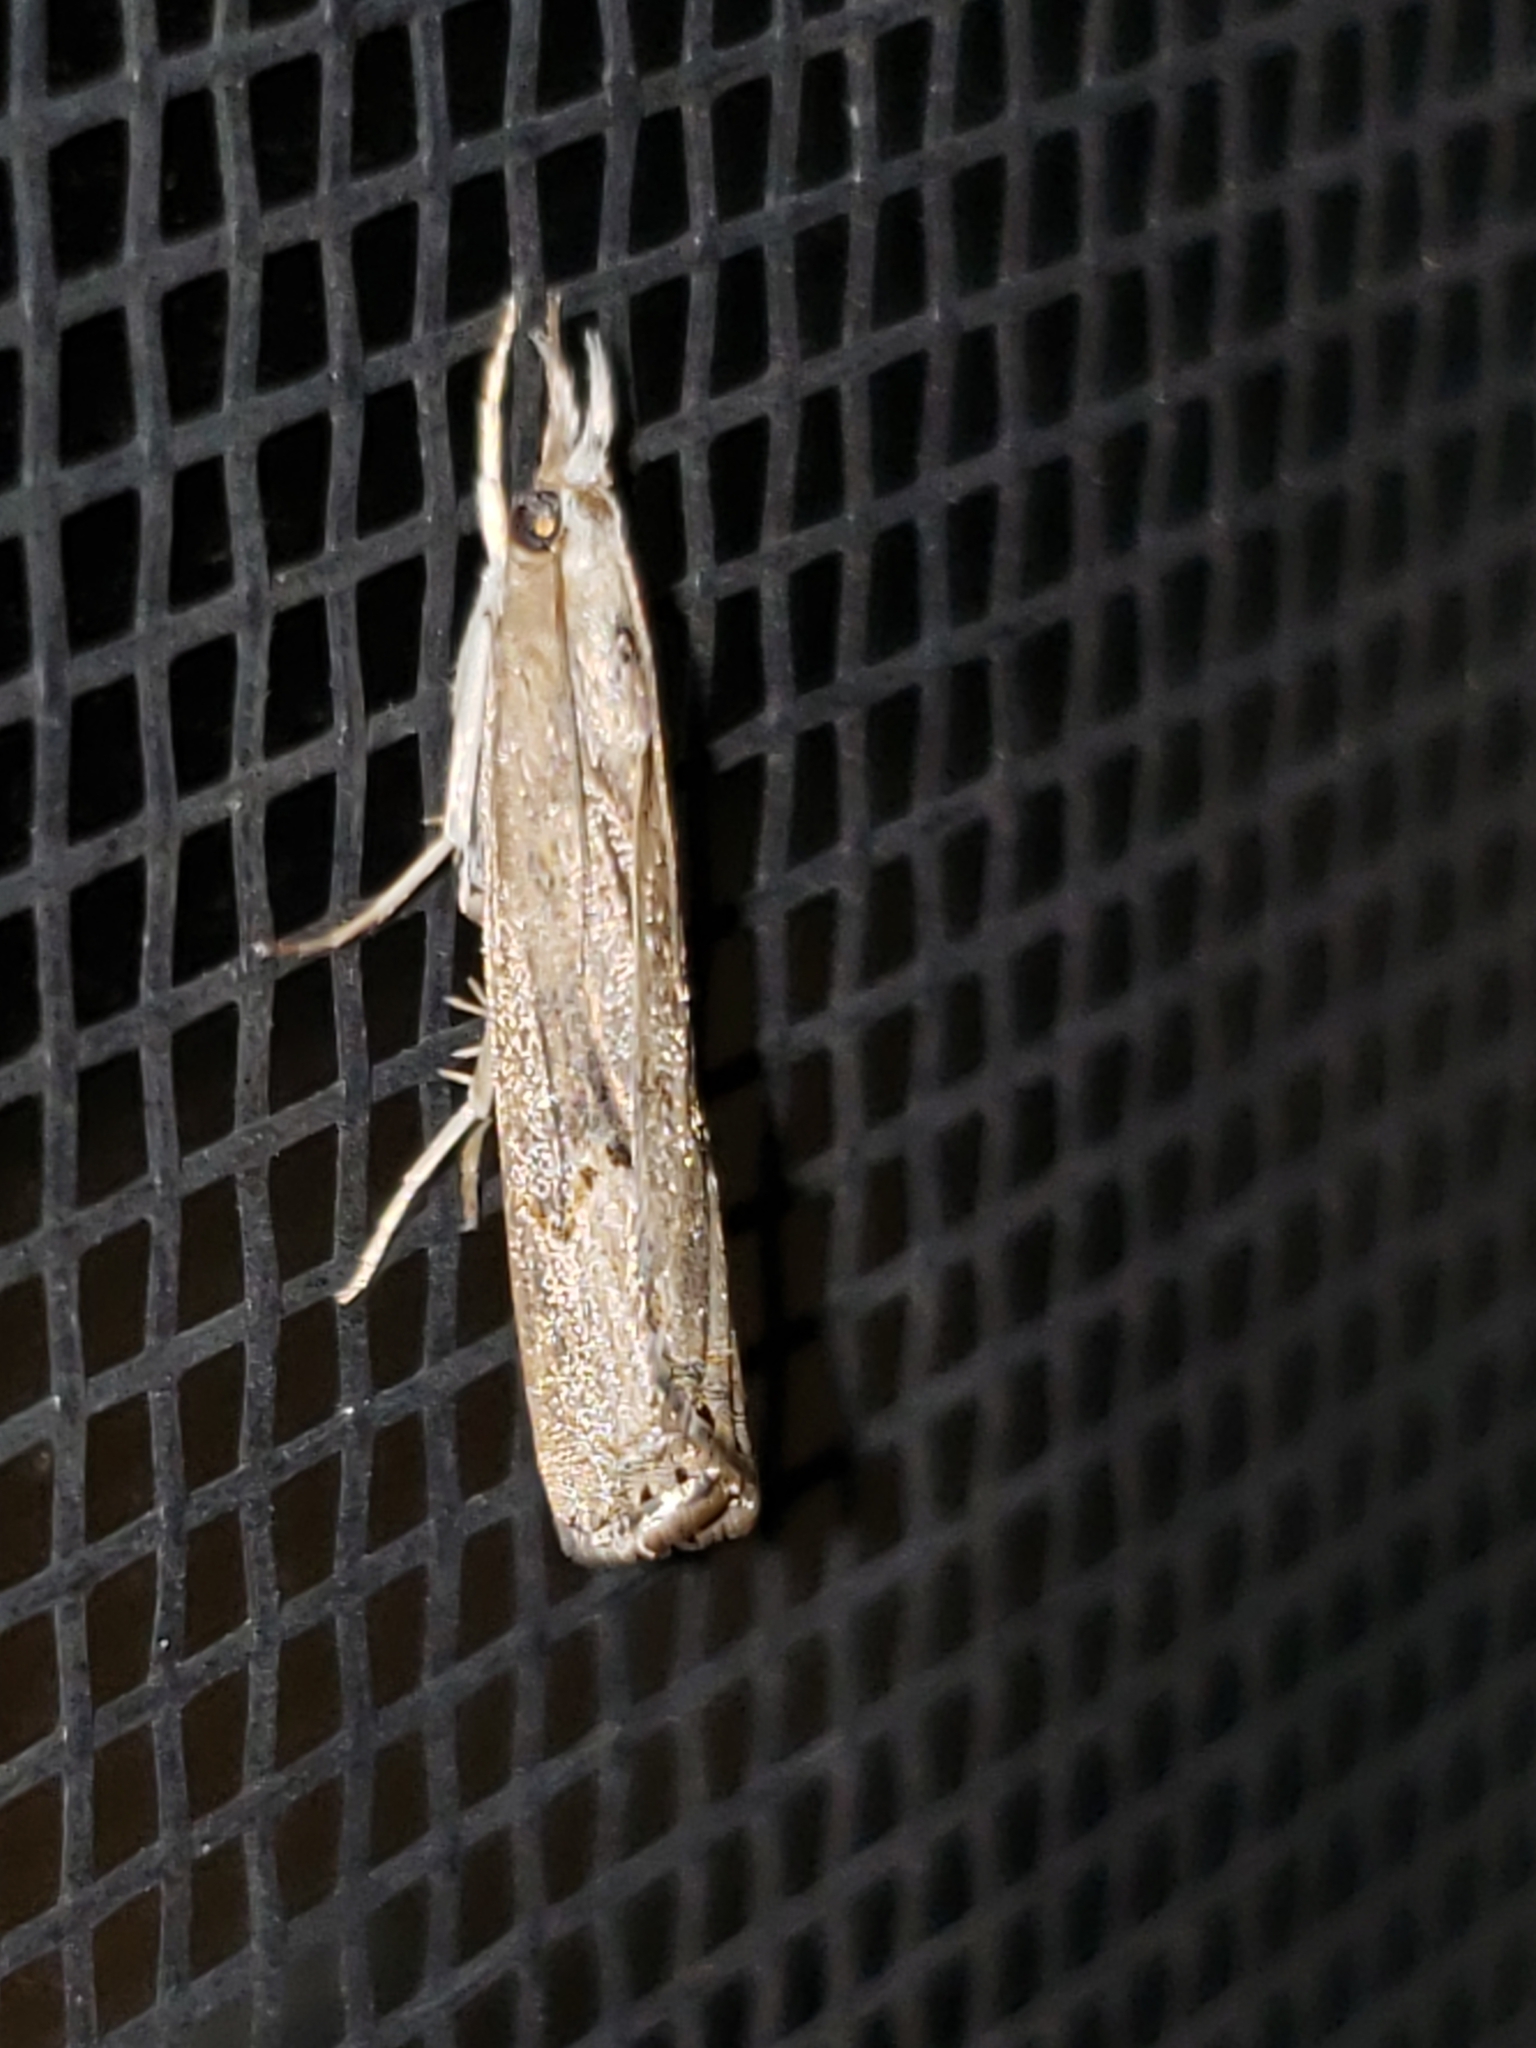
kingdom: Animalia
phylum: Arthropoda
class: Insecta
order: Lepidoptera
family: Crambidae
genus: Parapediasia
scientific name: Parapediasia teterellus
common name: Bluegrass webworm moth
